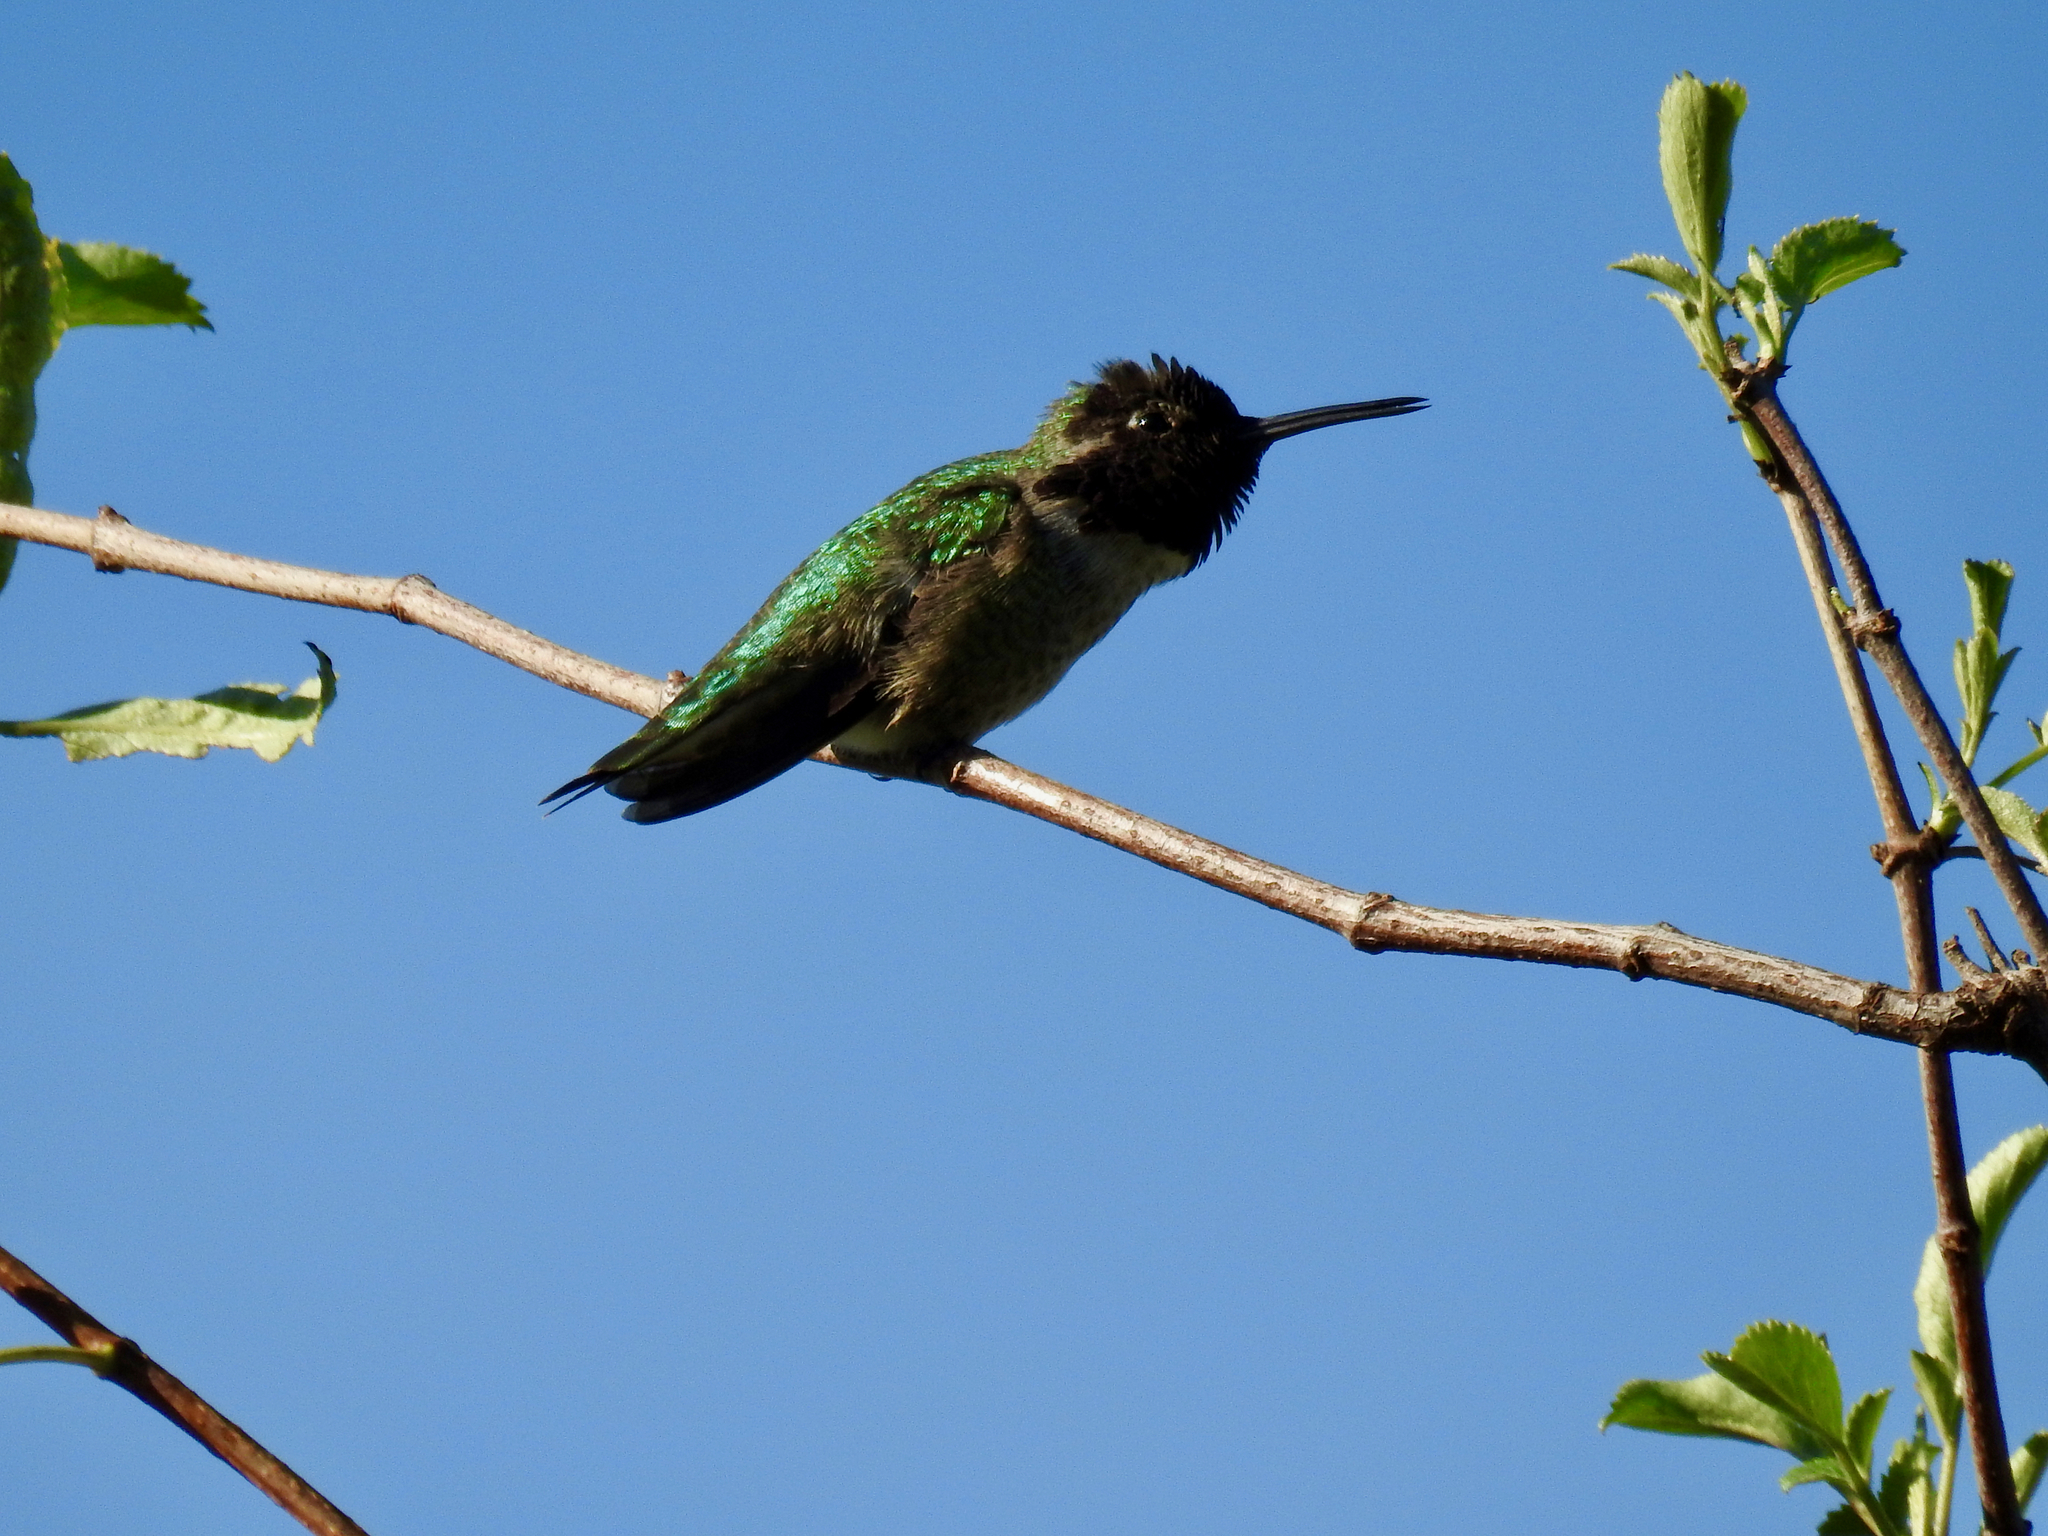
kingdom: Animalia
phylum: Chordata
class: Aves
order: Apodiformes
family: Trochilidae
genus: Calypte
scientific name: Calypte anna
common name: Anna's hummingbird
